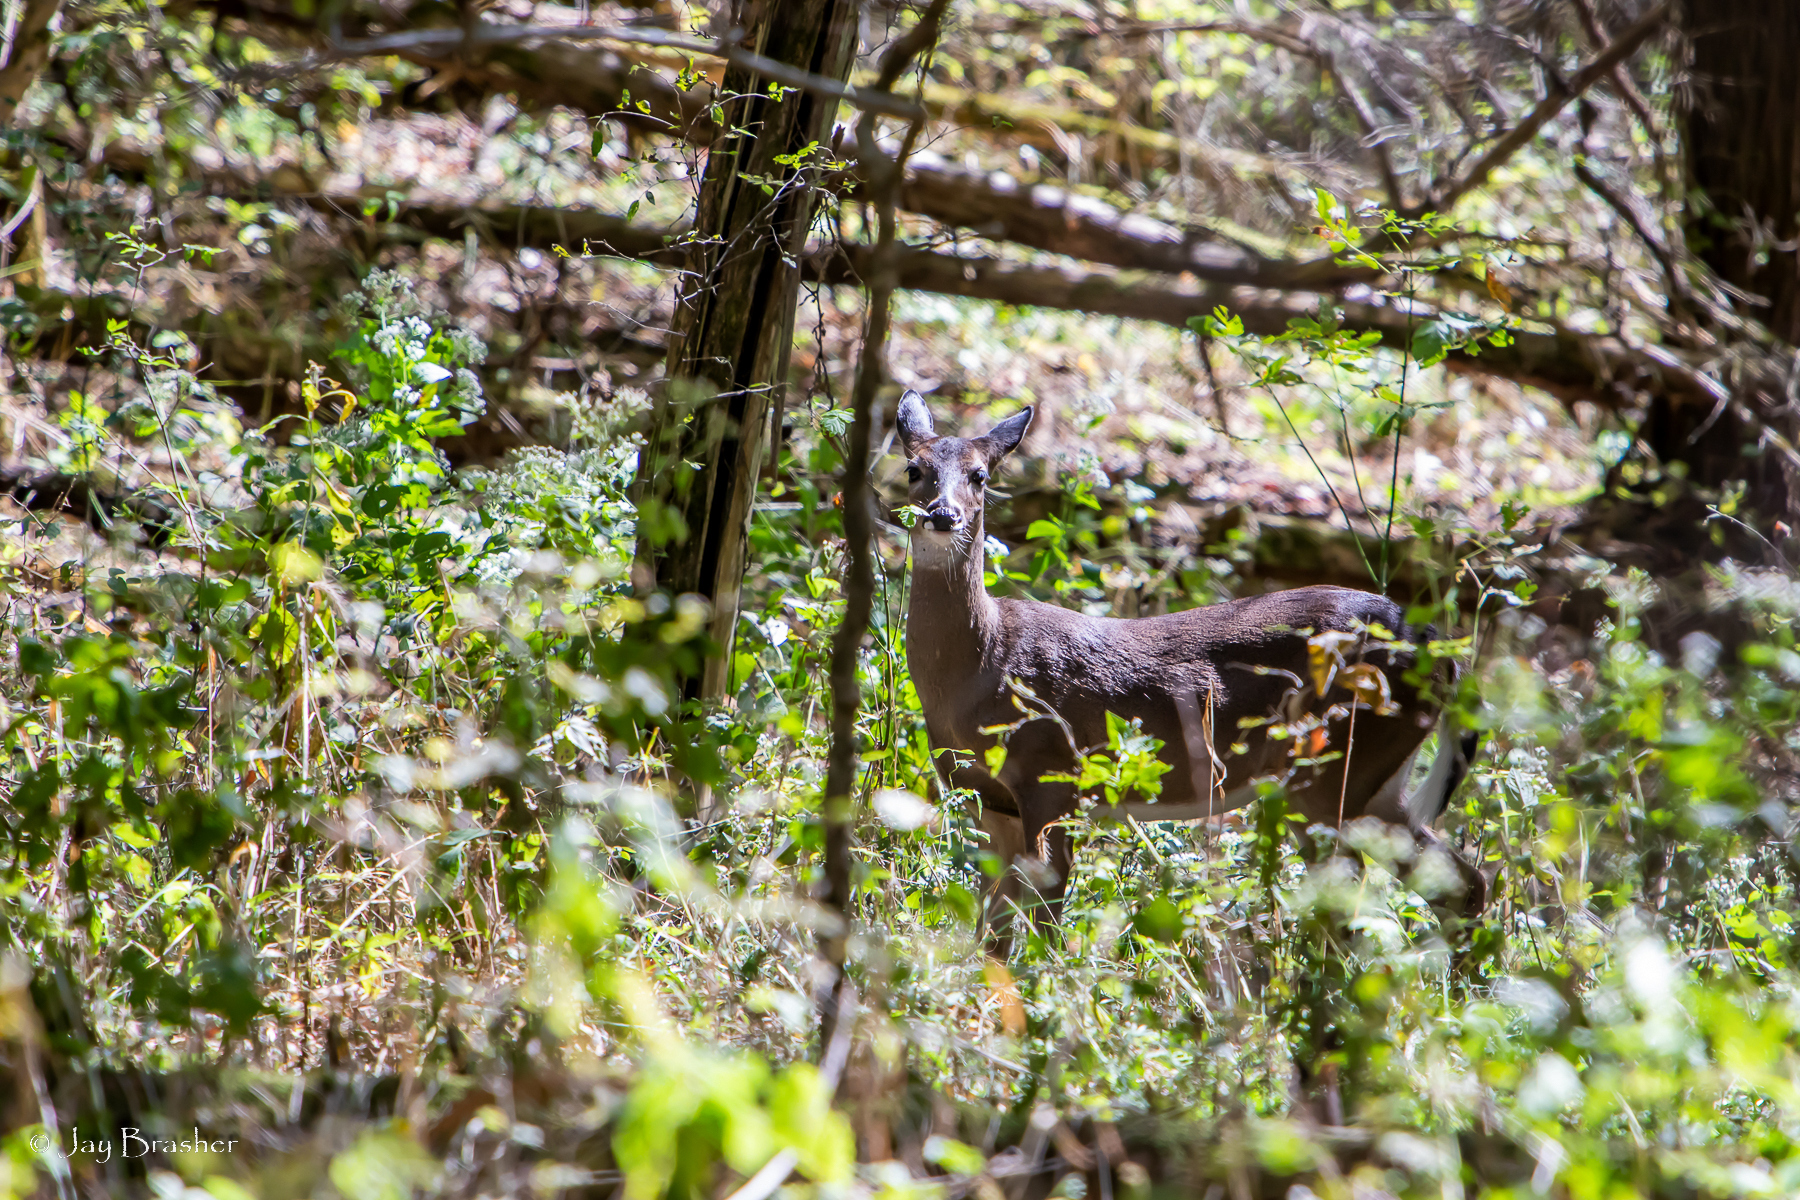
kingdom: Animalia
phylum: Chordata
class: Mammalia
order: Artiodactyla
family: Cervidae
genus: Odocoileus
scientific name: Odocoileus virginianus
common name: White-tailed deer
